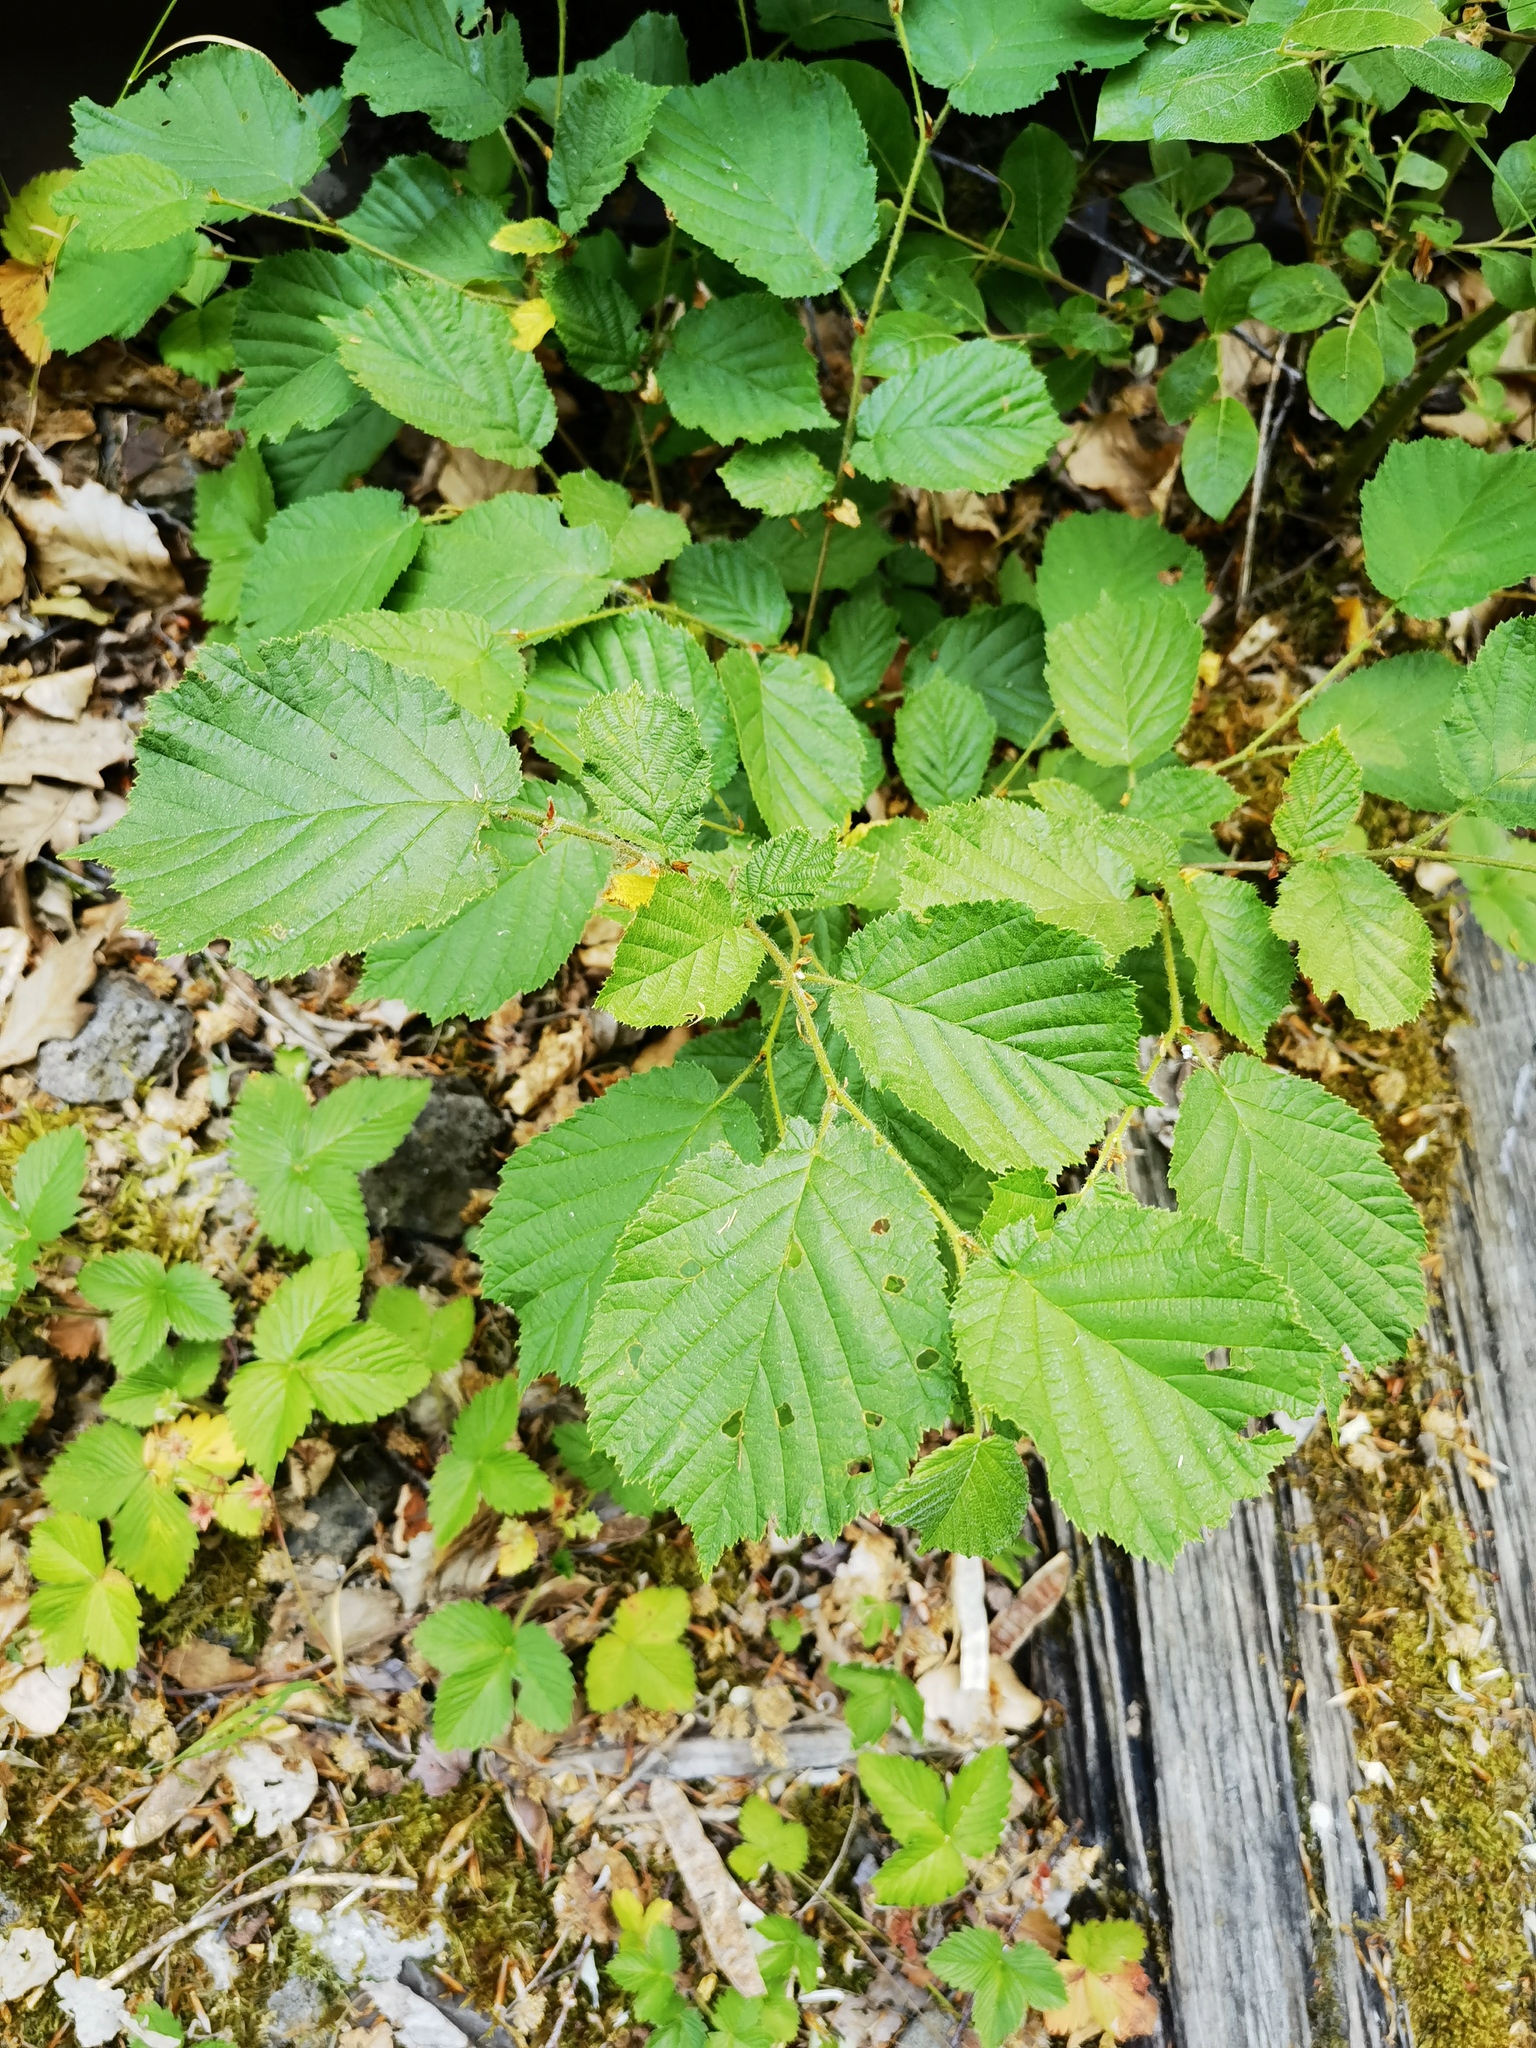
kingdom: Plantae
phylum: Tracheophyta
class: Magnoliopsida
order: Fagales
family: Betulaceae
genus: Corylus
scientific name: Corylus avellana
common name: European hazel
